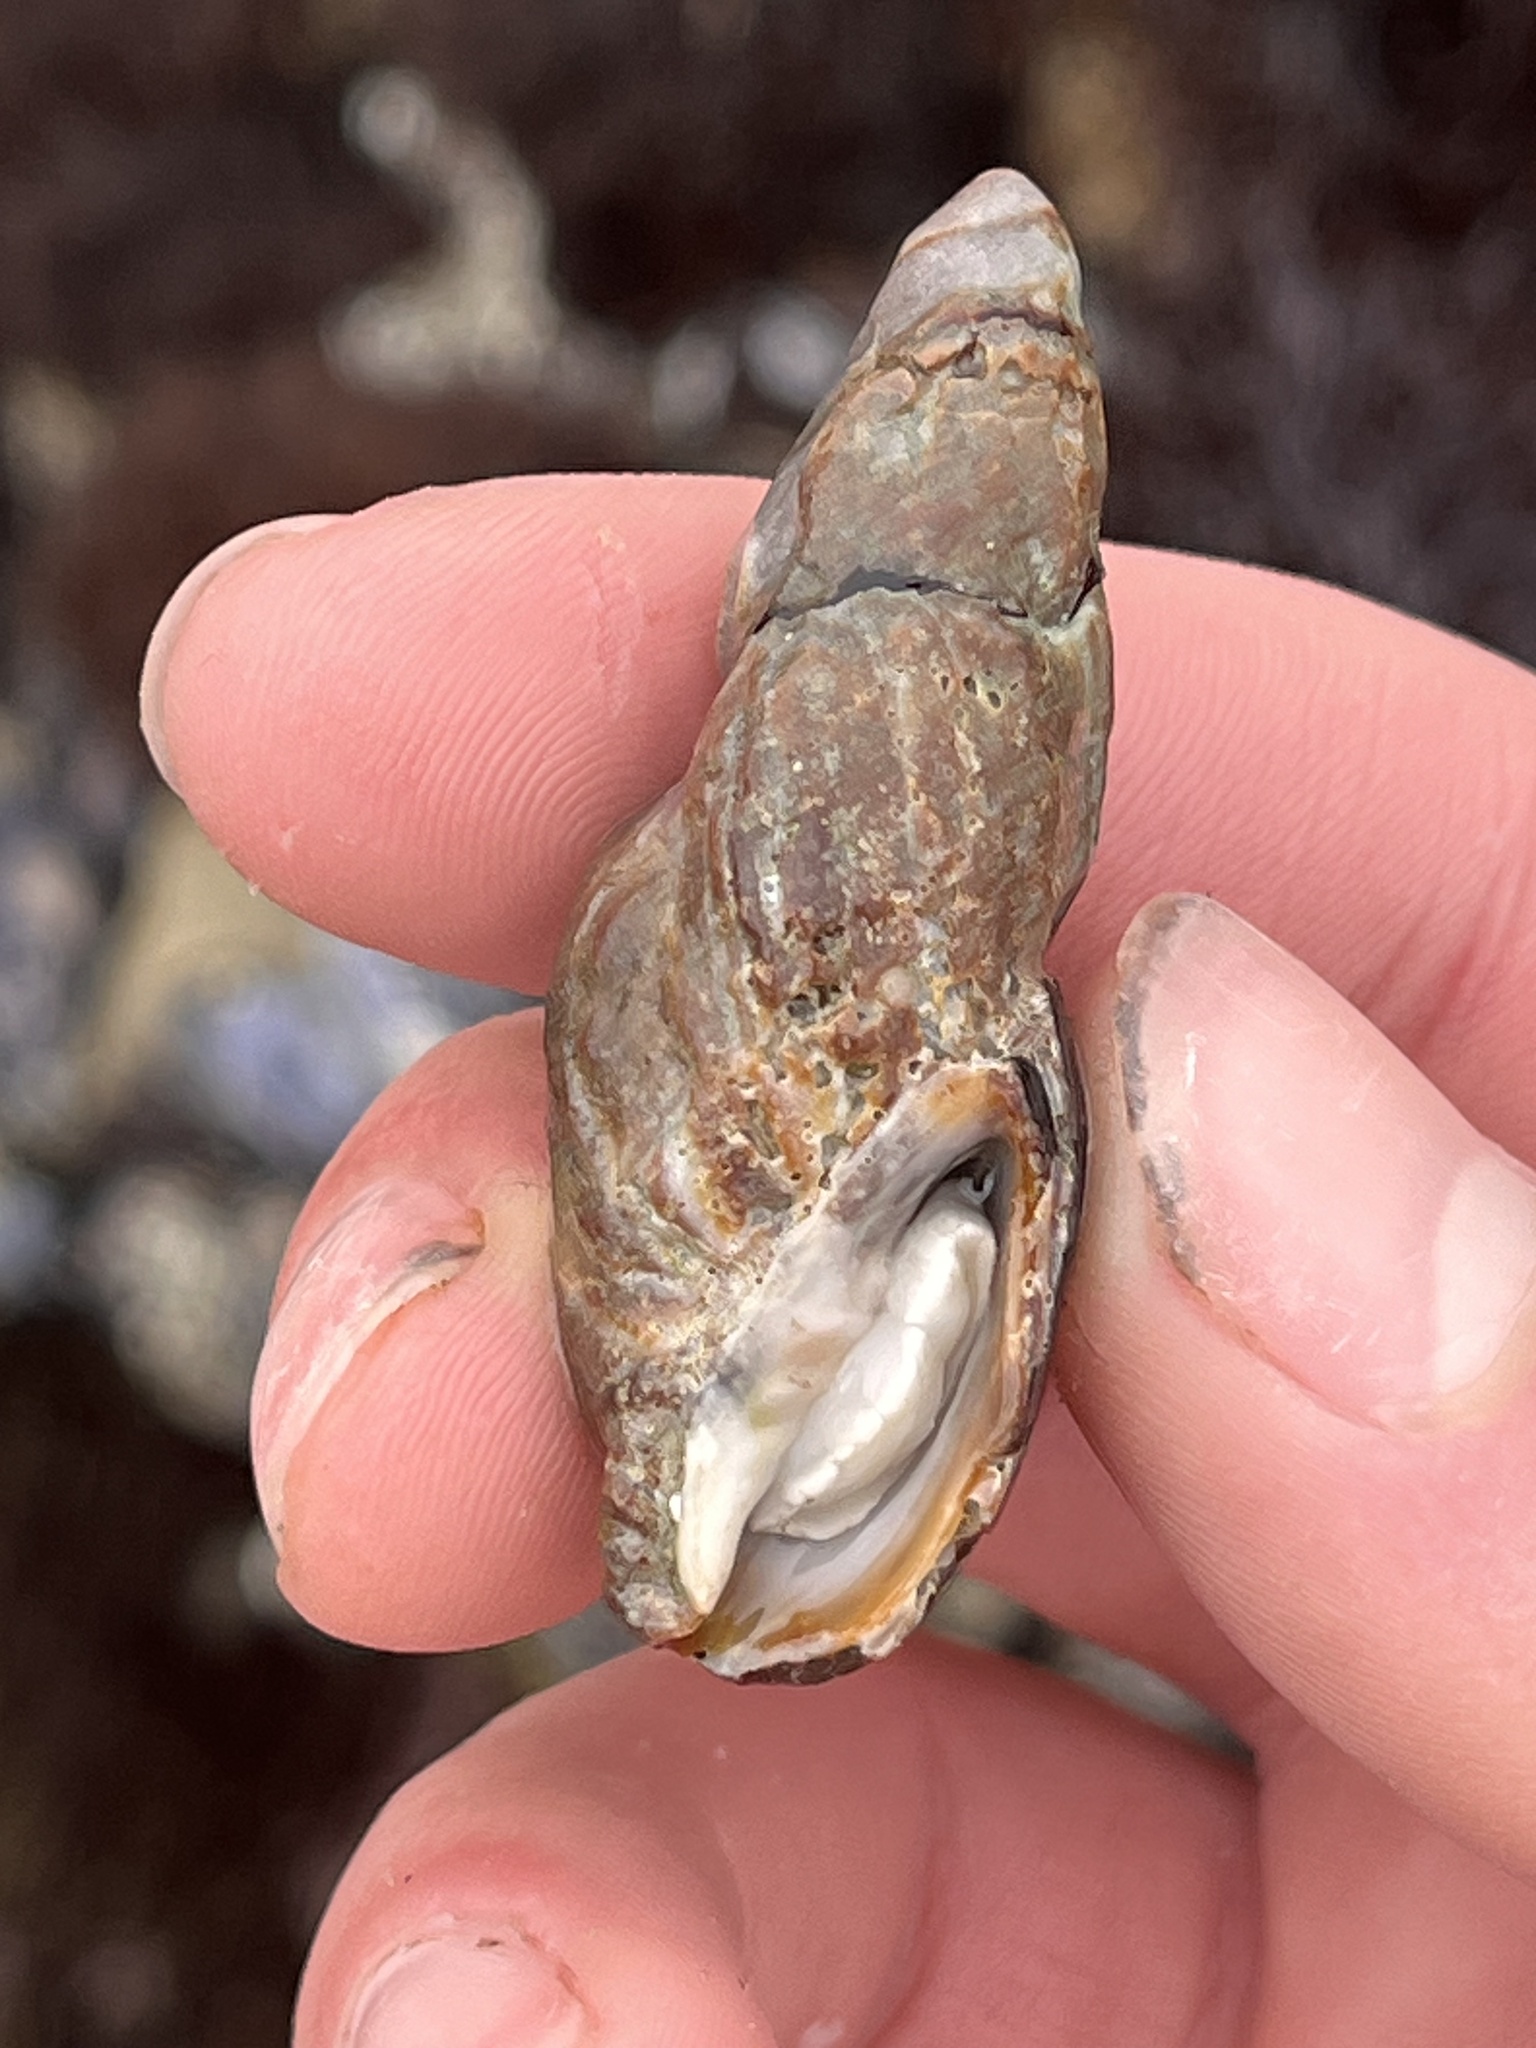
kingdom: Animalia
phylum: Mollusca
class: Gastropoda
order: Neogastropoda
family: Mitridae
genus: Atrimitra
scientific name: Atrimitra idae
